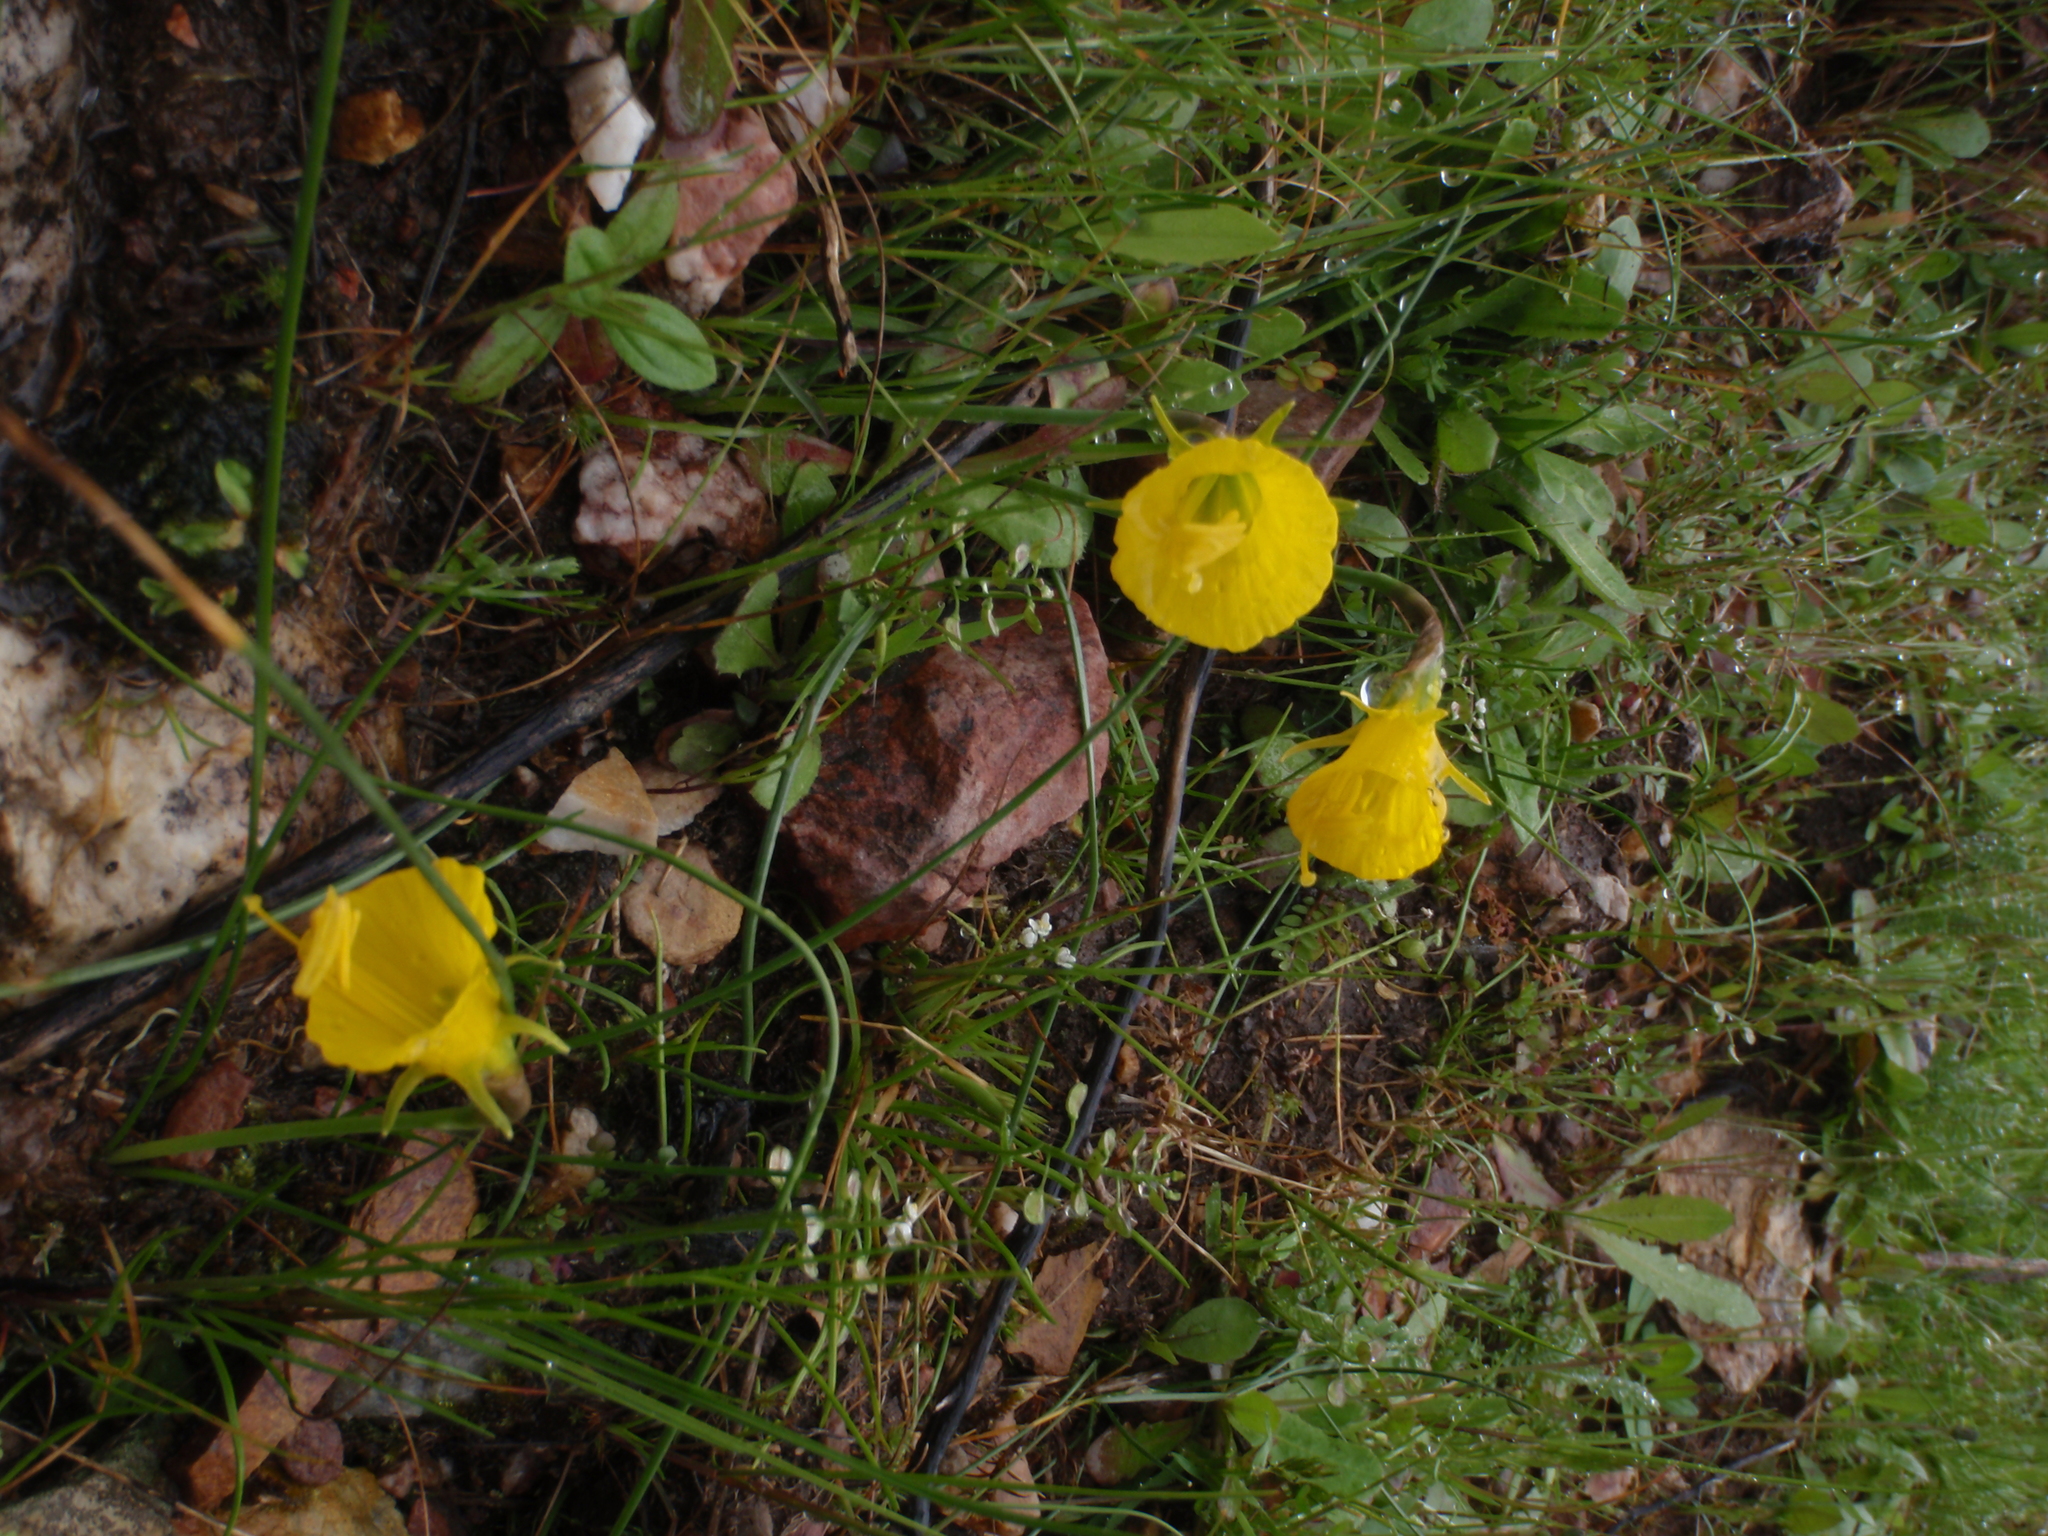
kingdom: Plantae
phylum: Tracheophyta
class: Liliopsida
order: Asparagales
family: Amaryllidaceae
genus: Narcissus
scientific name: Narcissus bulbocodium
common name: Hoop-petticoat daffodil
